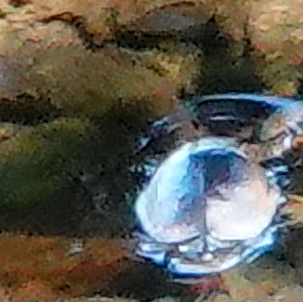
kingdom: Animalia
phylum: Arthropoda
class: Insecta
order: Coleoptera
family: Gyrinidae
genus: Dineutus
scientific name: Dineutus
